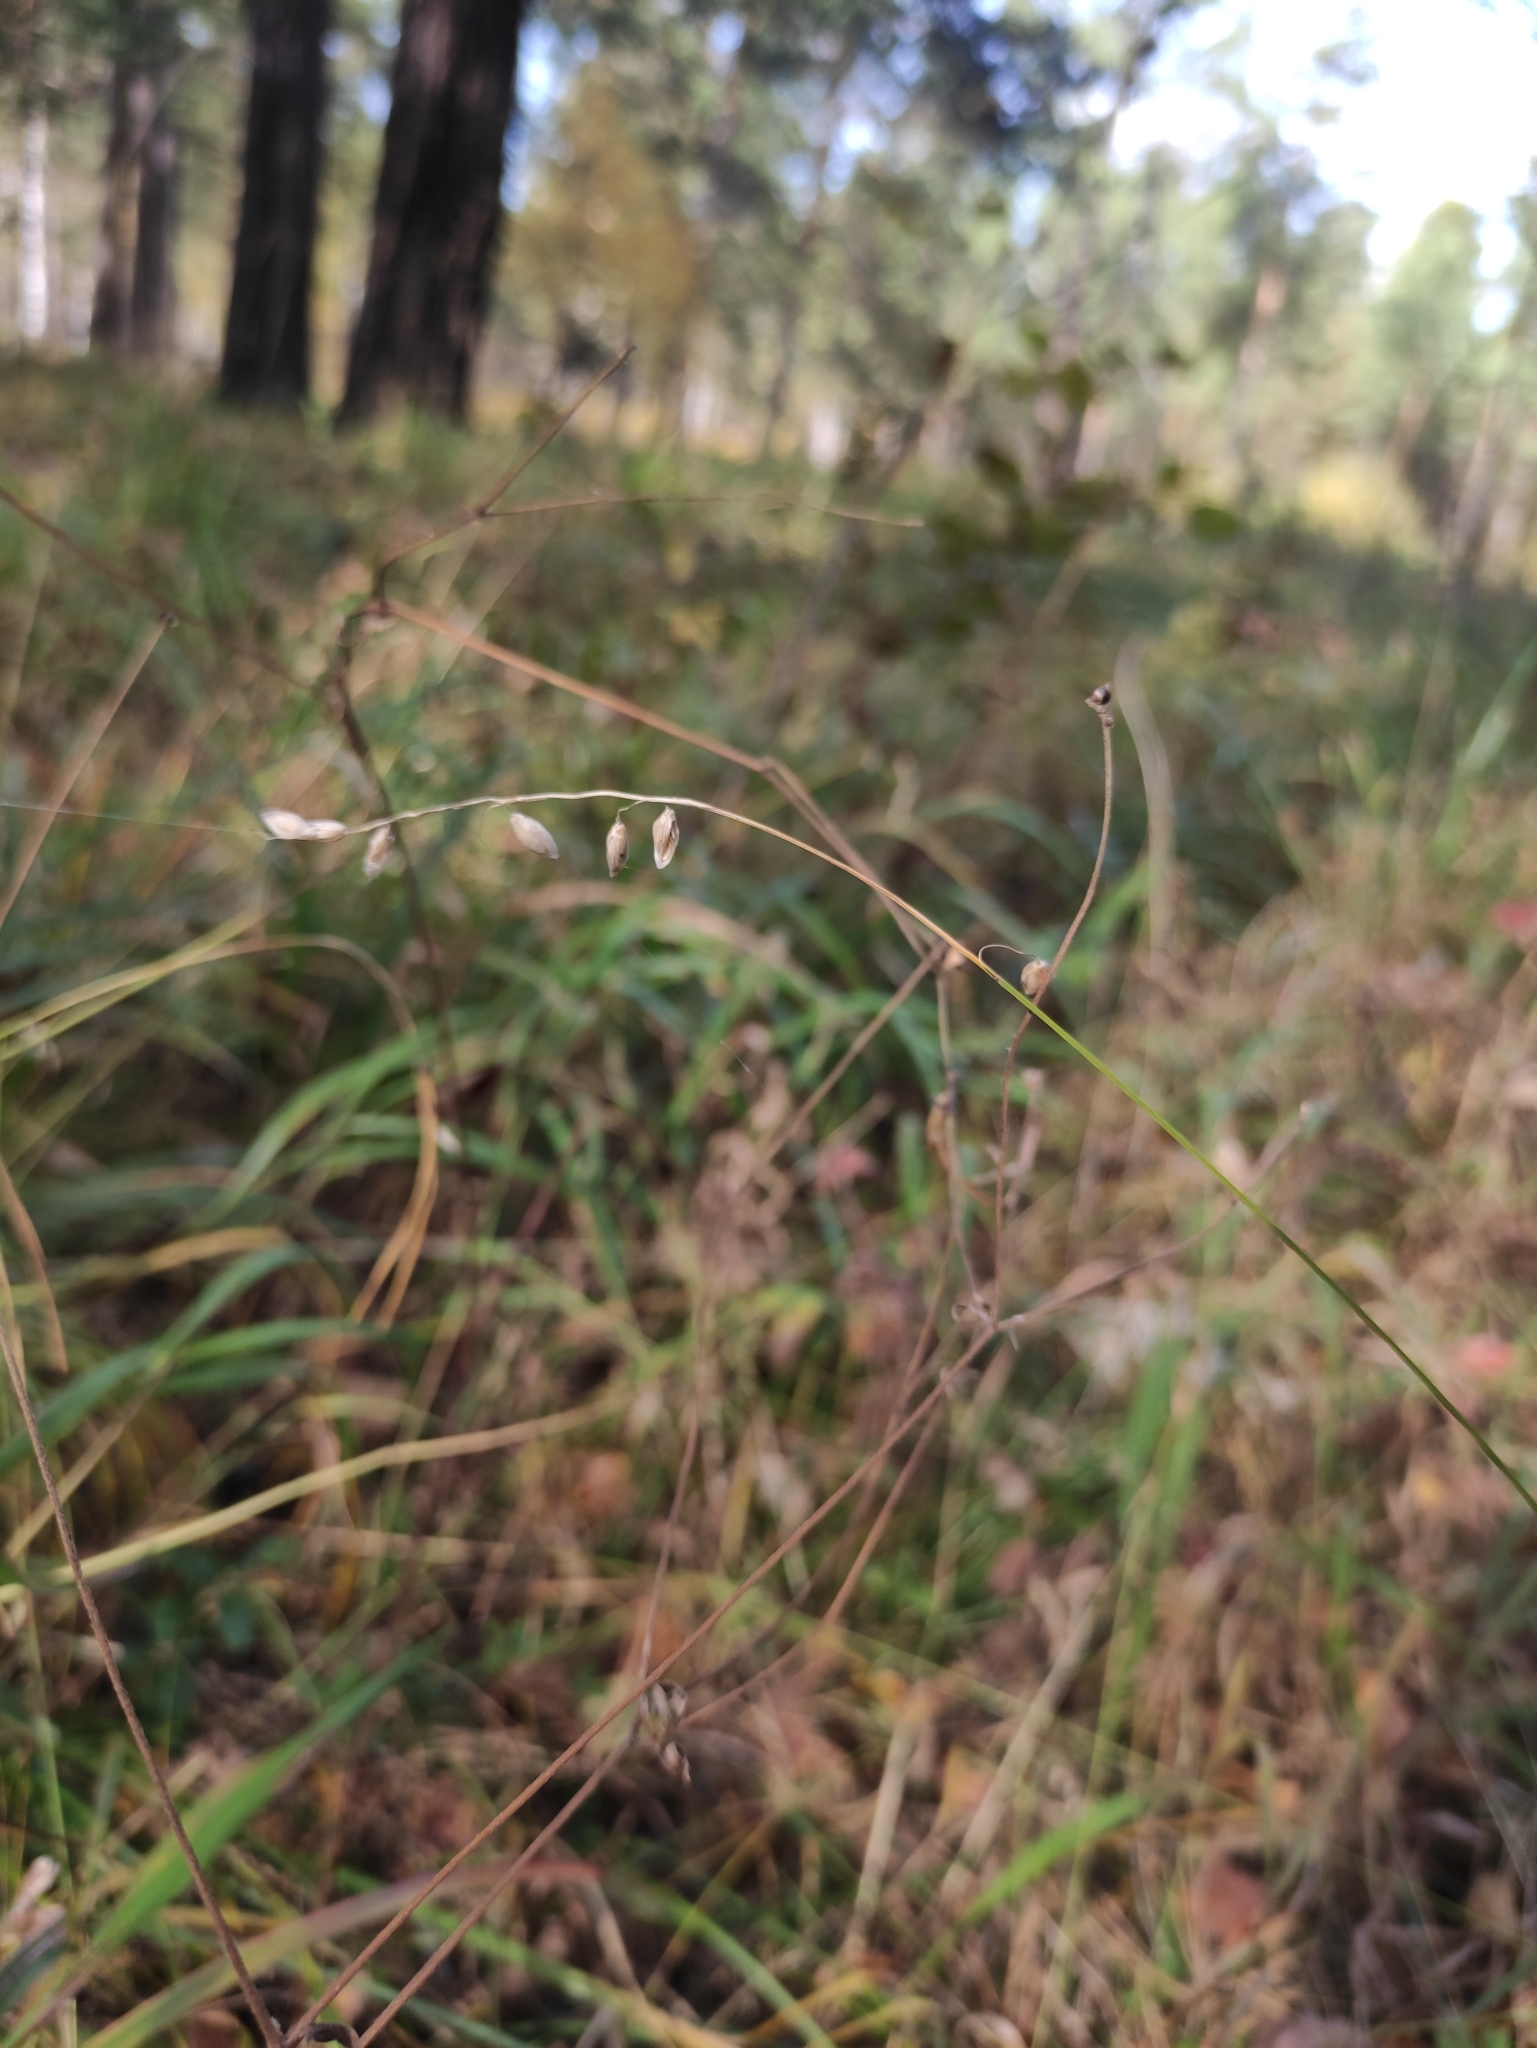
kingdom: Plantae
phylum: Tracheophyta
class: Liliopsida
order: Poales
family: Poaceae
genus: Melica
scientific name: Melica nutans
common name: Mountain melick
